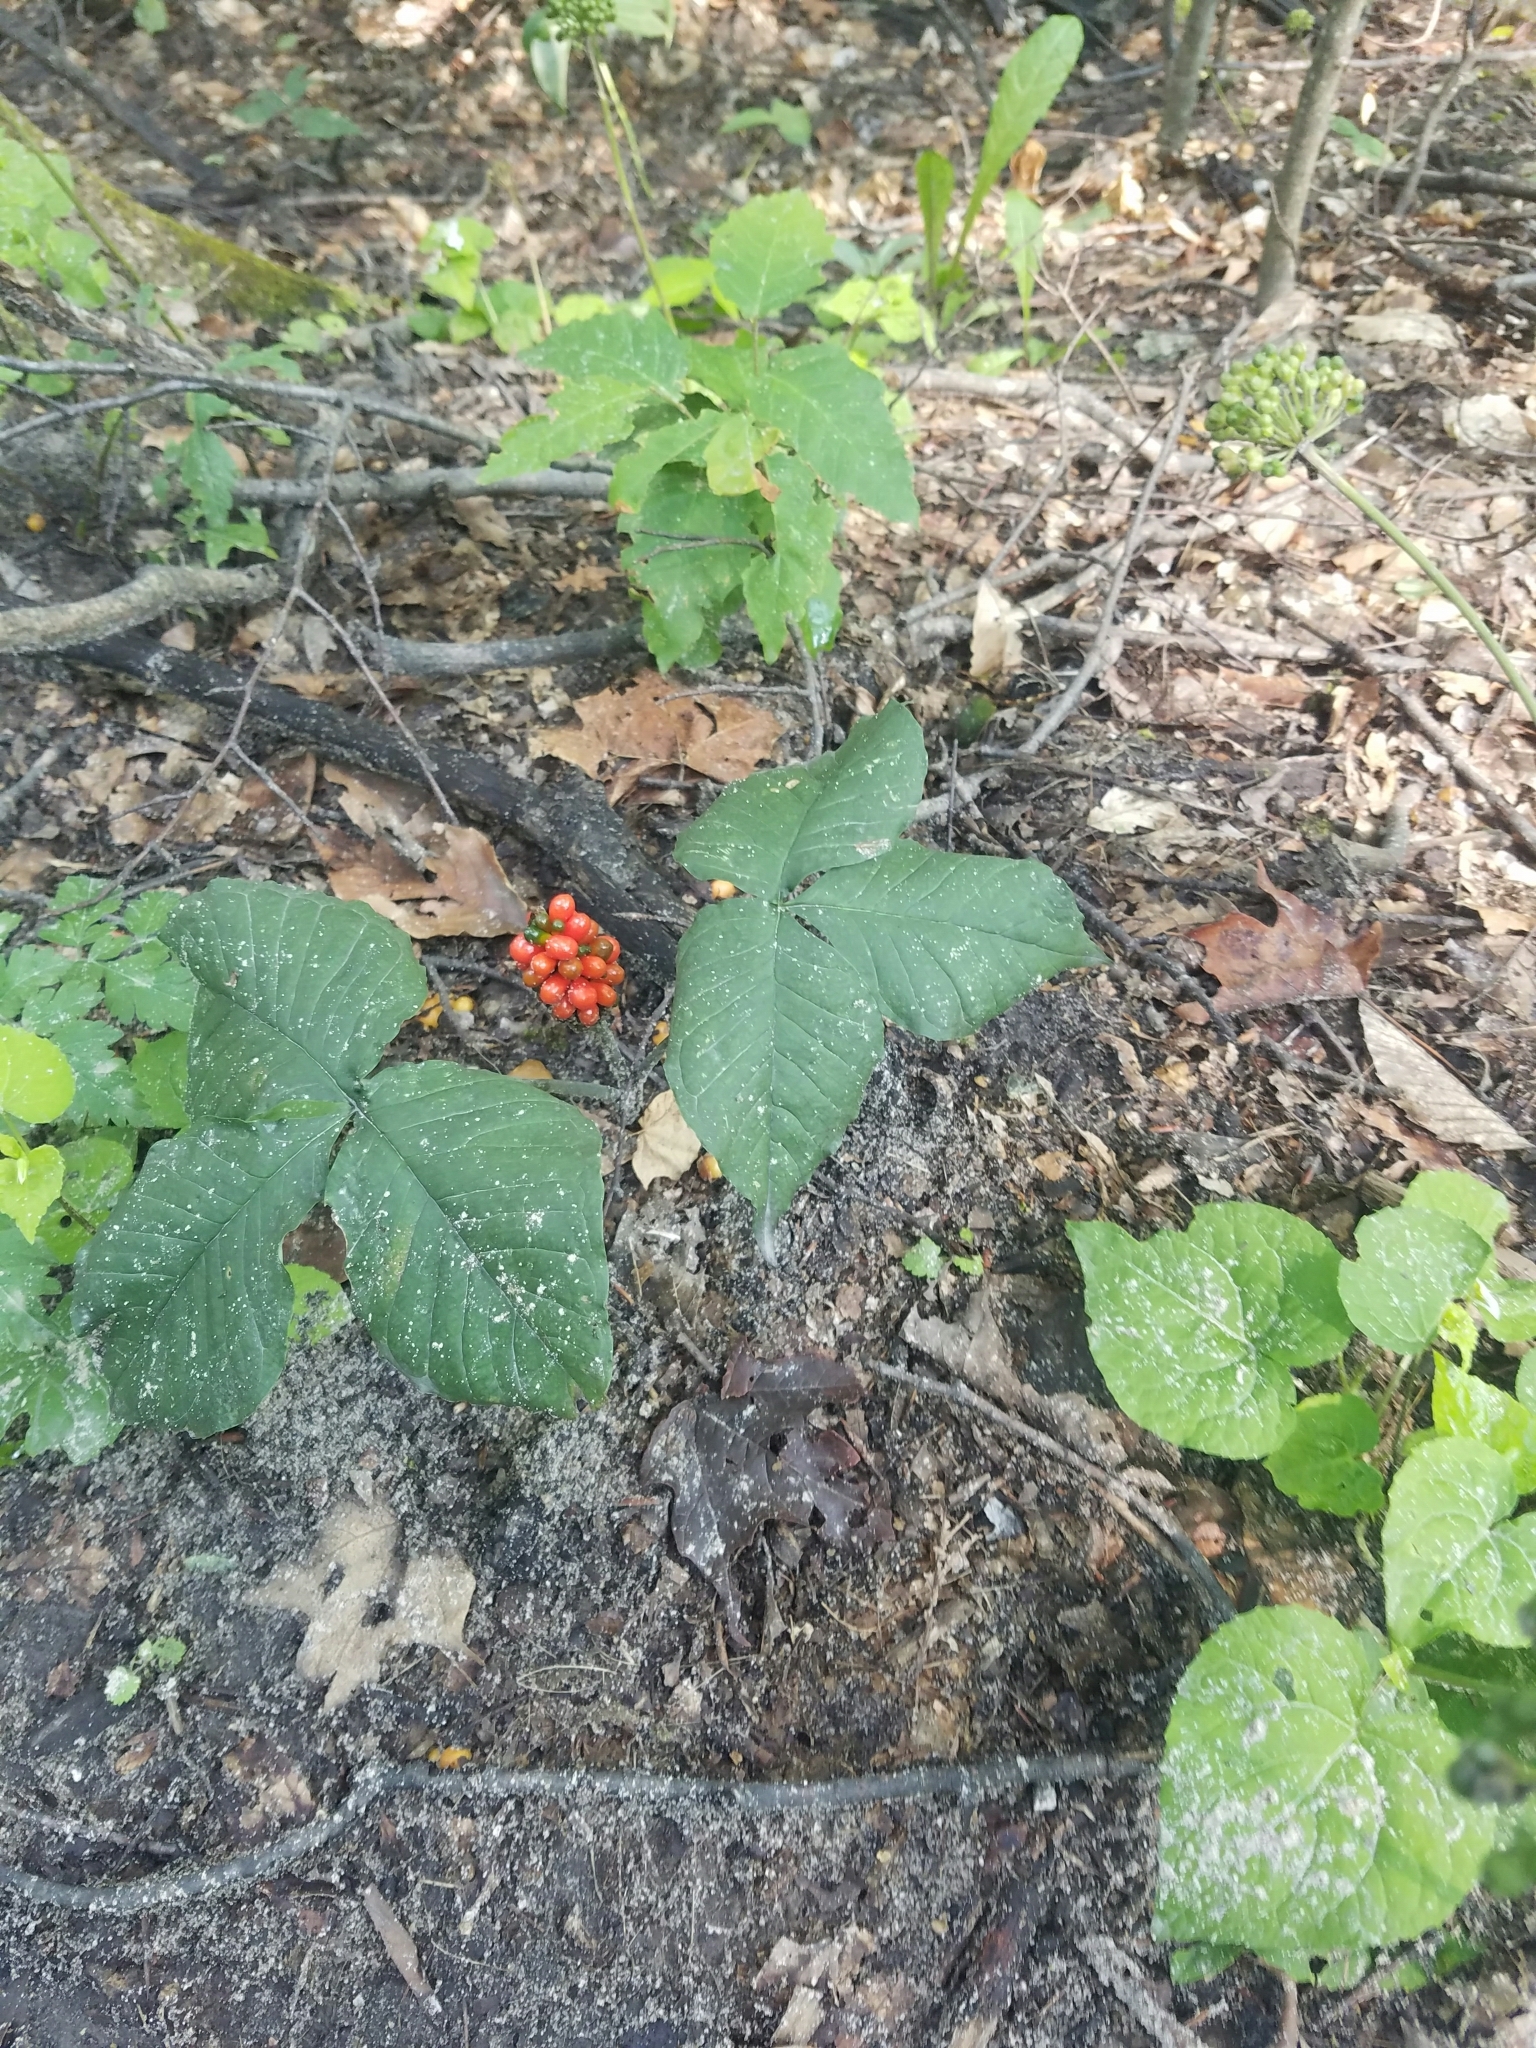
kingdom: Plantae
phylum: Tracheophyta
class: Liliopsida
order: Alismatales
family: Araceae
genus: Arisaema
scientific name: Arisaema triphyllum
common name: Jack-in-the-pulpit
